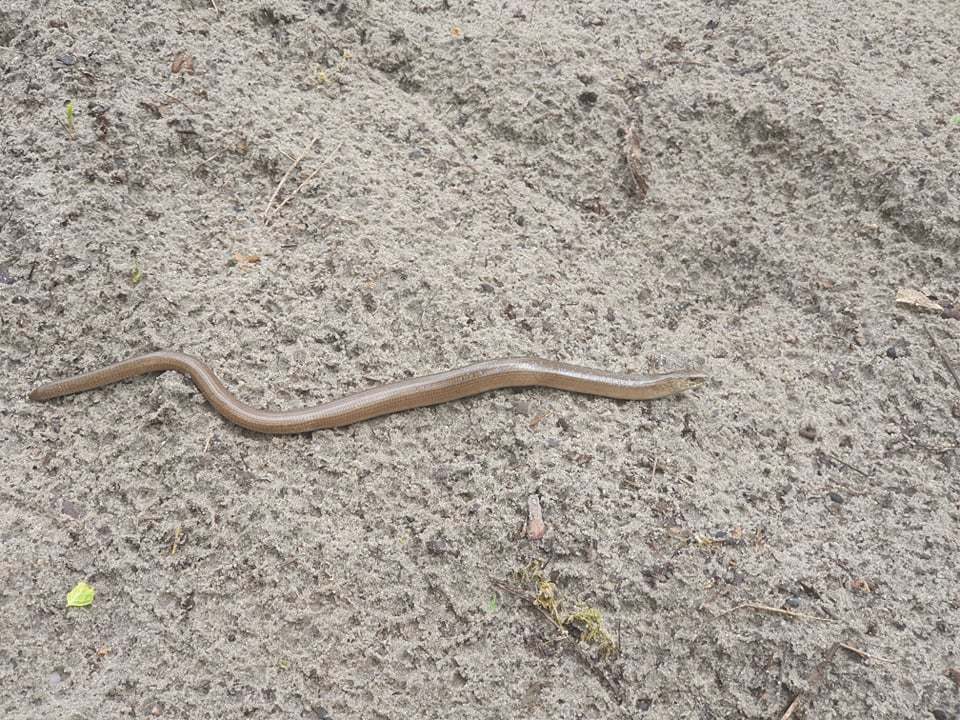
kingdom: Animalia
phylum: Chordata
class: Squamata
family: Anguidae
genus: Anguis
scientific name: Anguis colchica
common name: Slow worm
